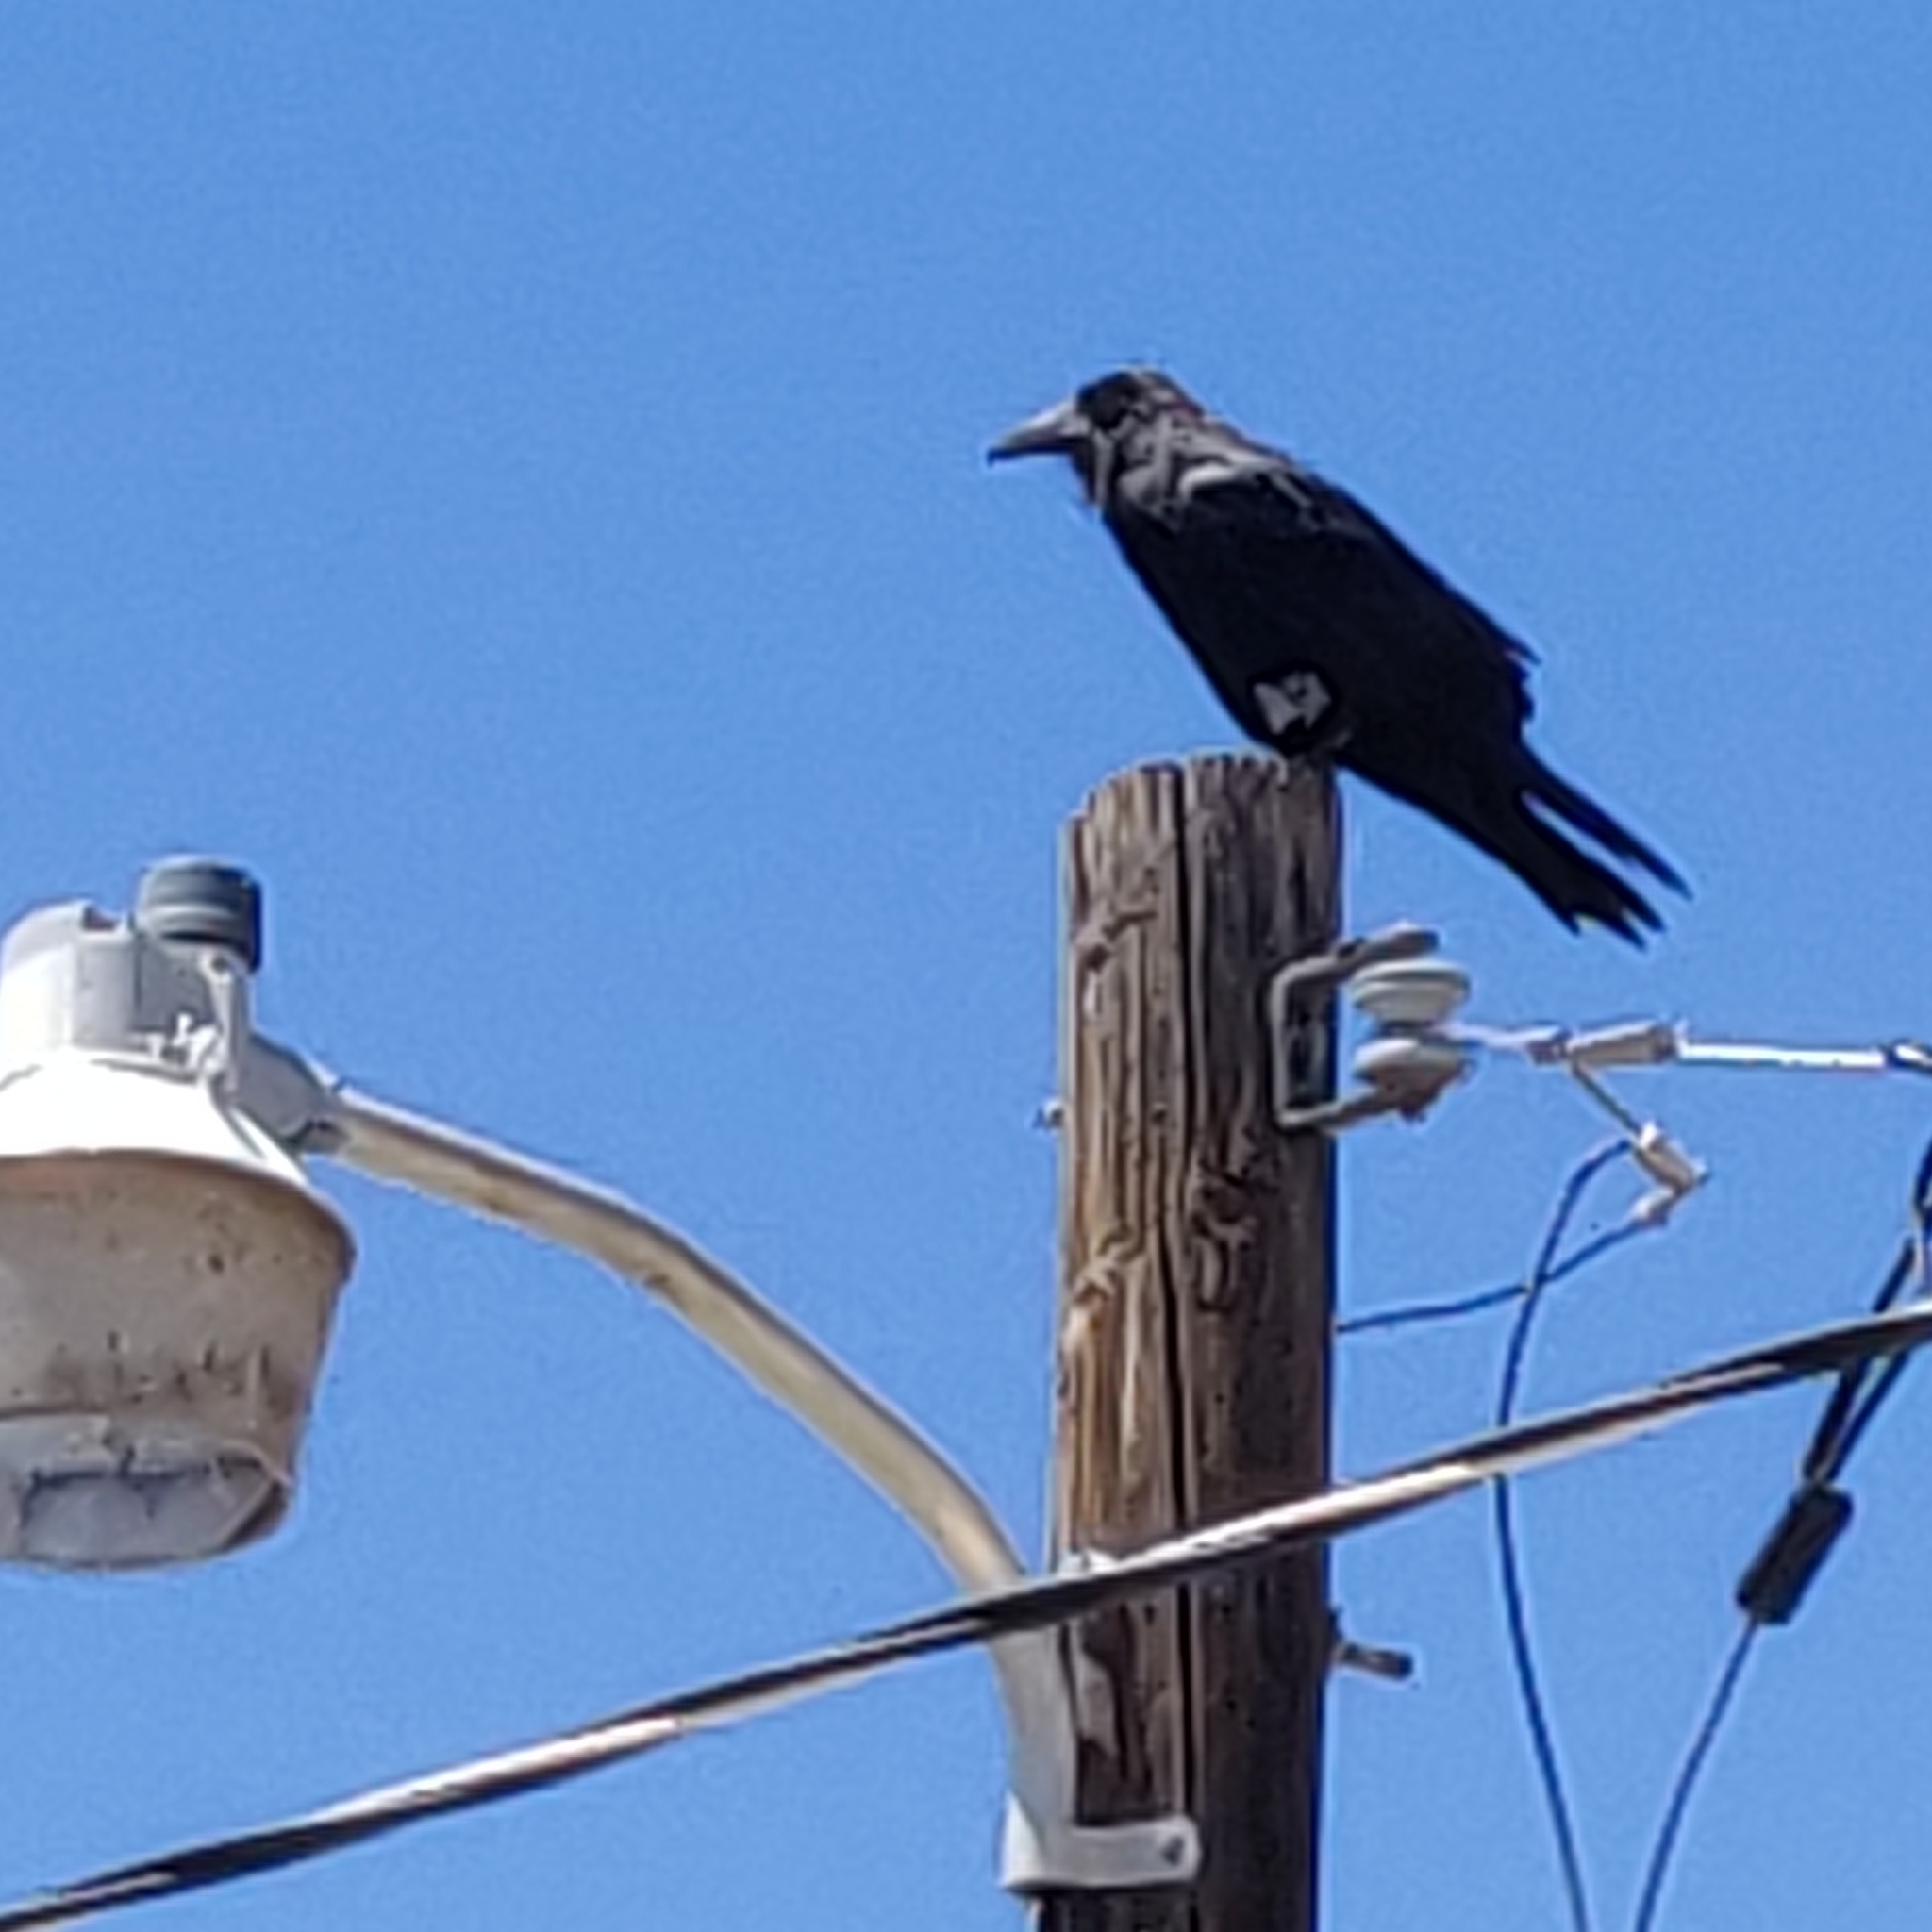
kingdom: Animalia
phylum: Chordata
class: Aves
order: Passeriformes
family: Corvidae
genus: Corvus
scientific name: Corvus corax
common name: Common raven
